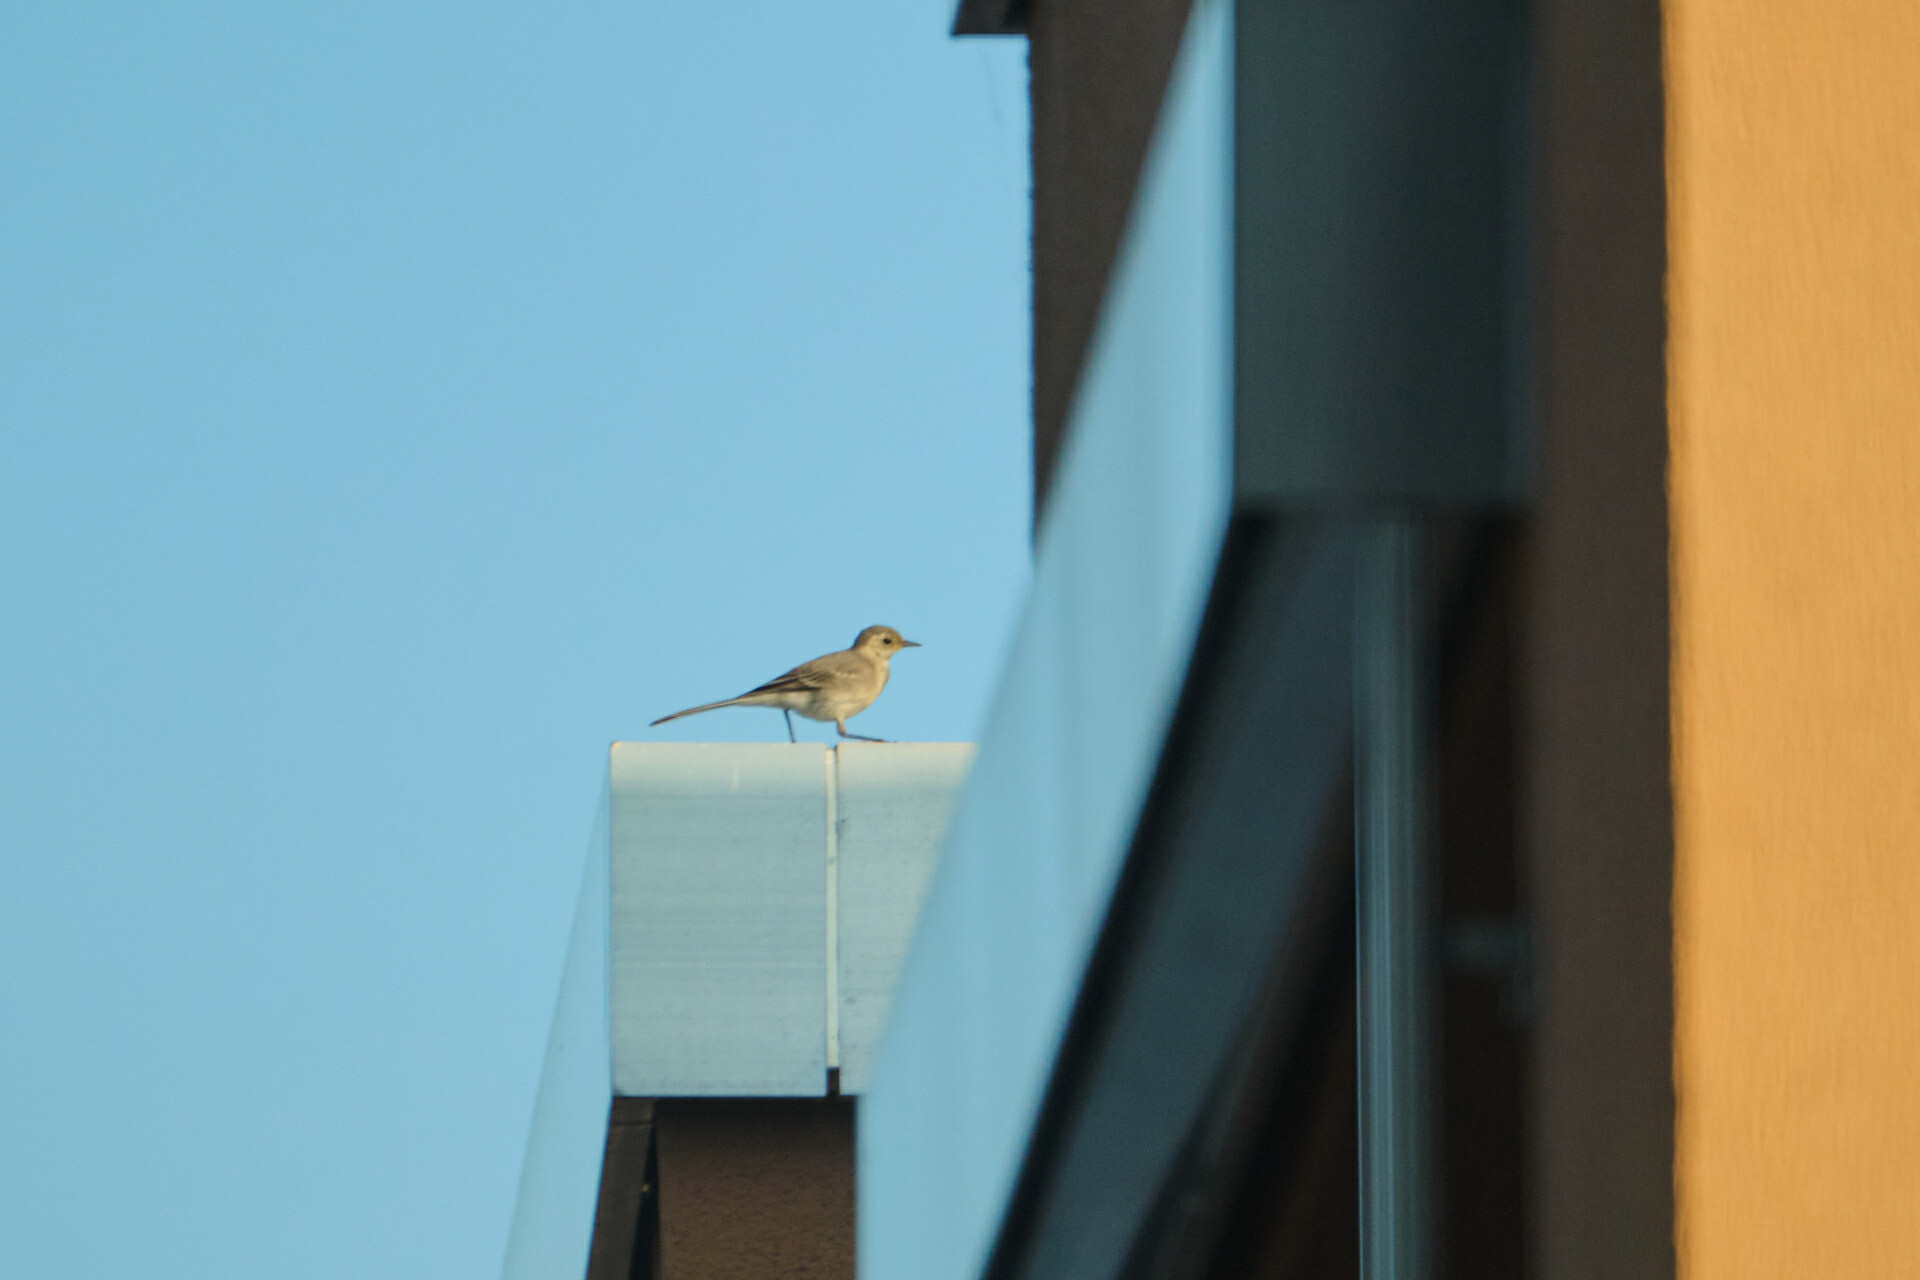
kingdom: Animalia
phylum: Chordata
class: Aves
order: Passeriformes
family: Motacillidae
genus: Motacilla
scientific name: Motacilla alba
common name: White wagtail
